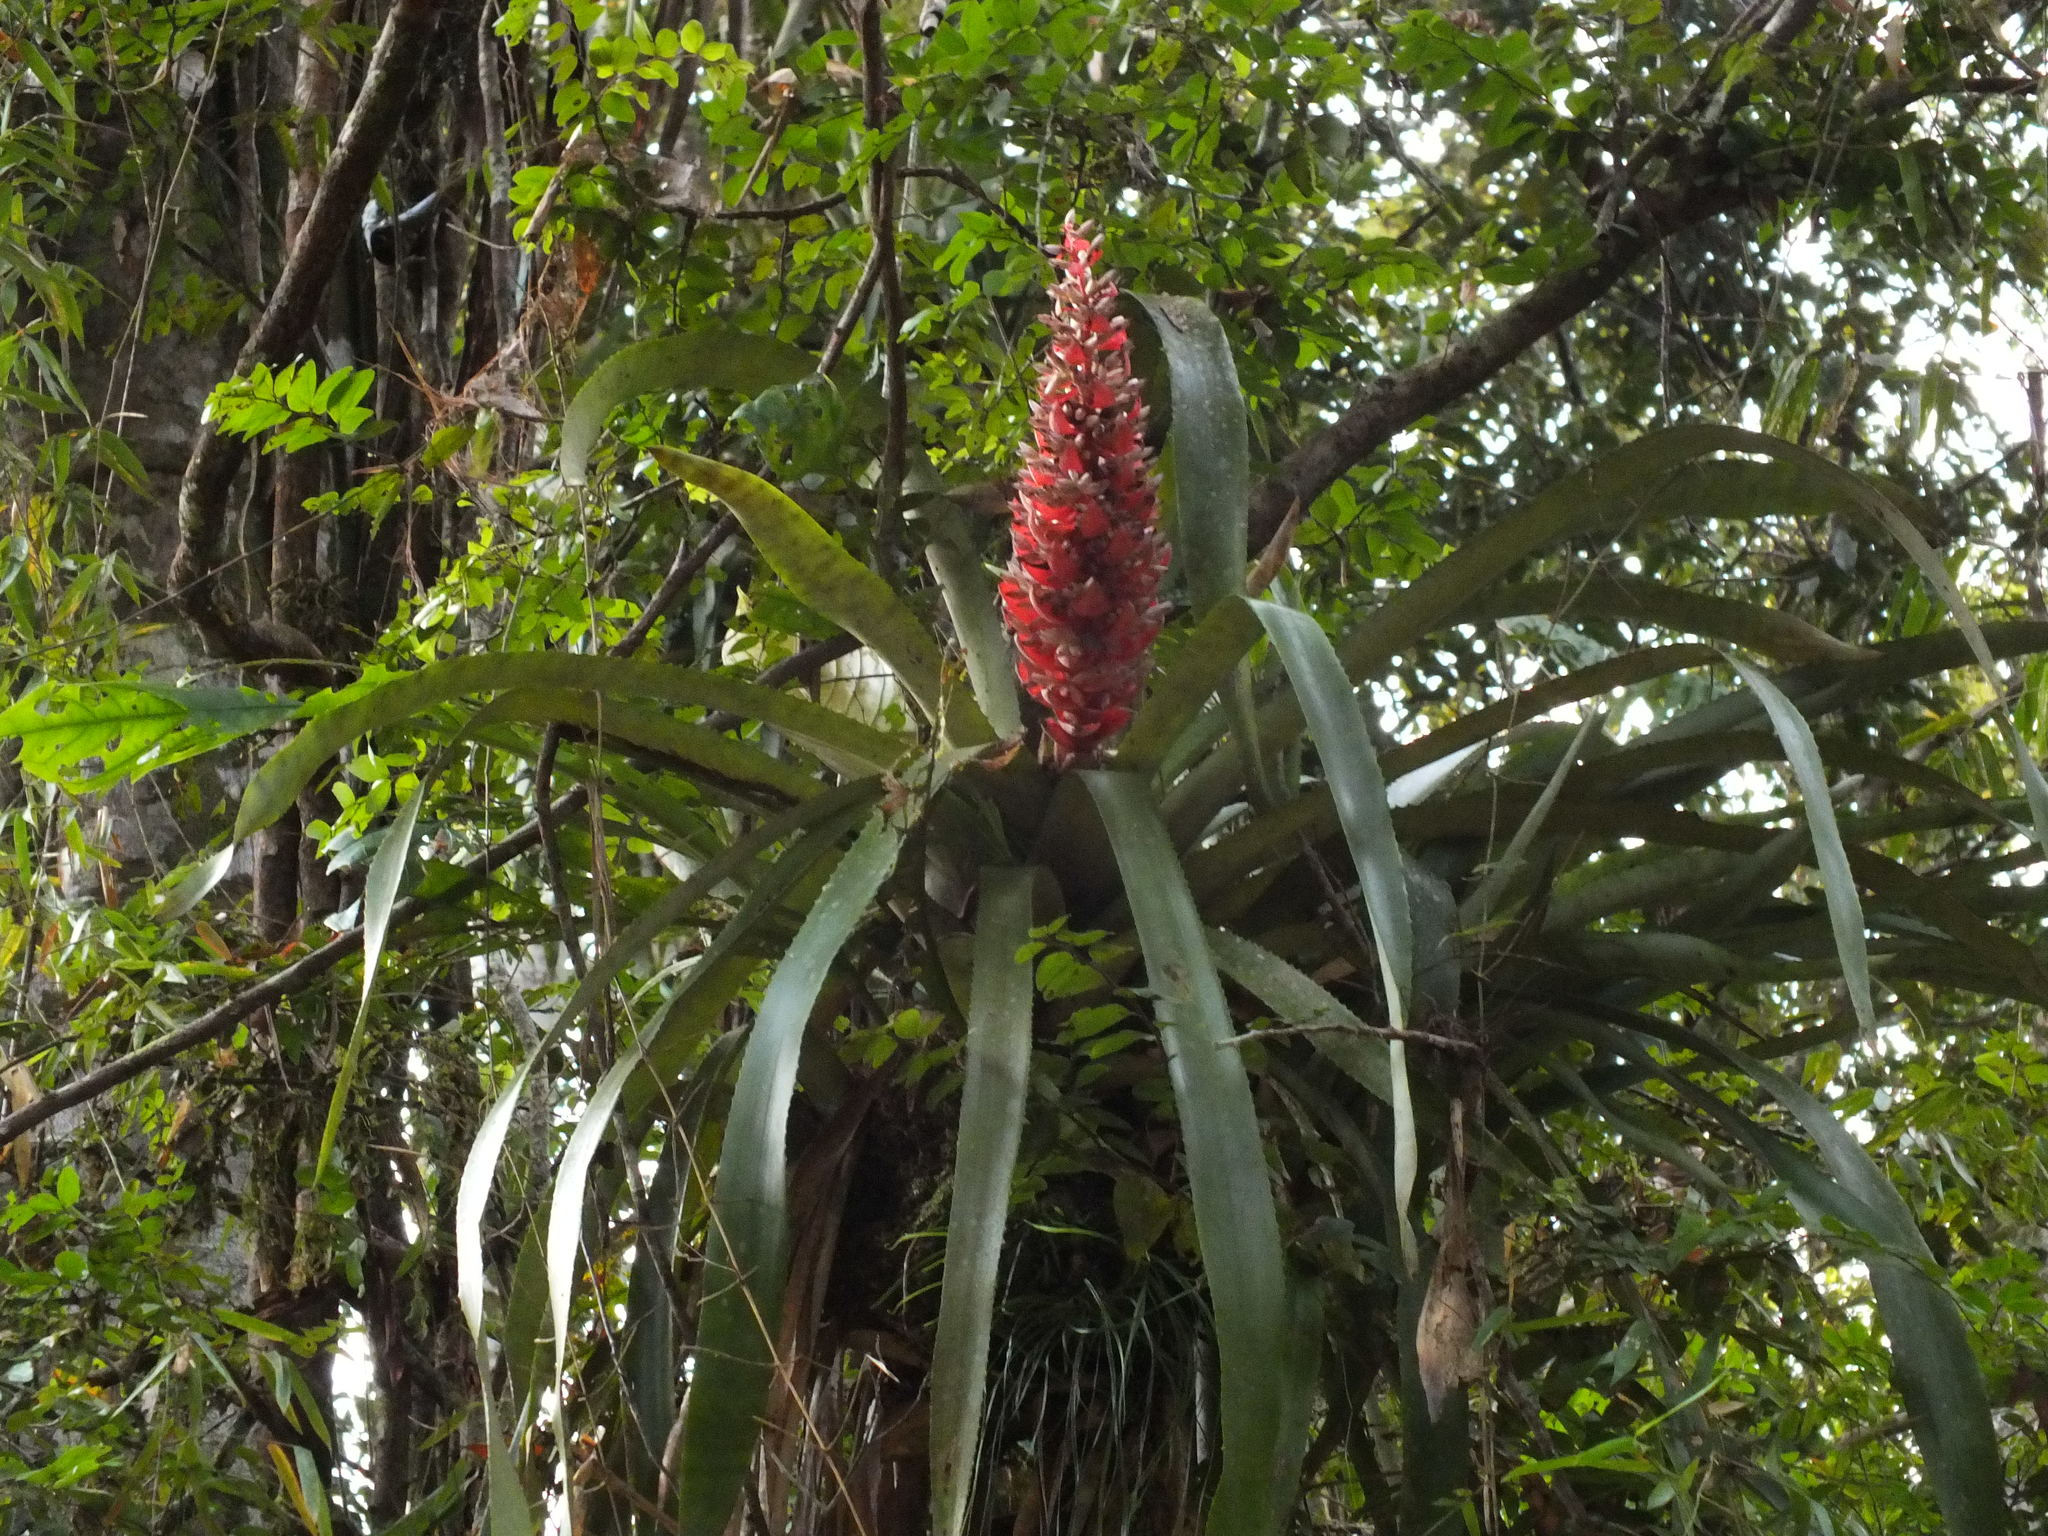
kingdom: Plantae
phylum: Tracheophyta
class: Liliopsida
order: Poales
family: Bromeliaceae
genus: Aechmea
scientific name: Aechmea vallerandii
